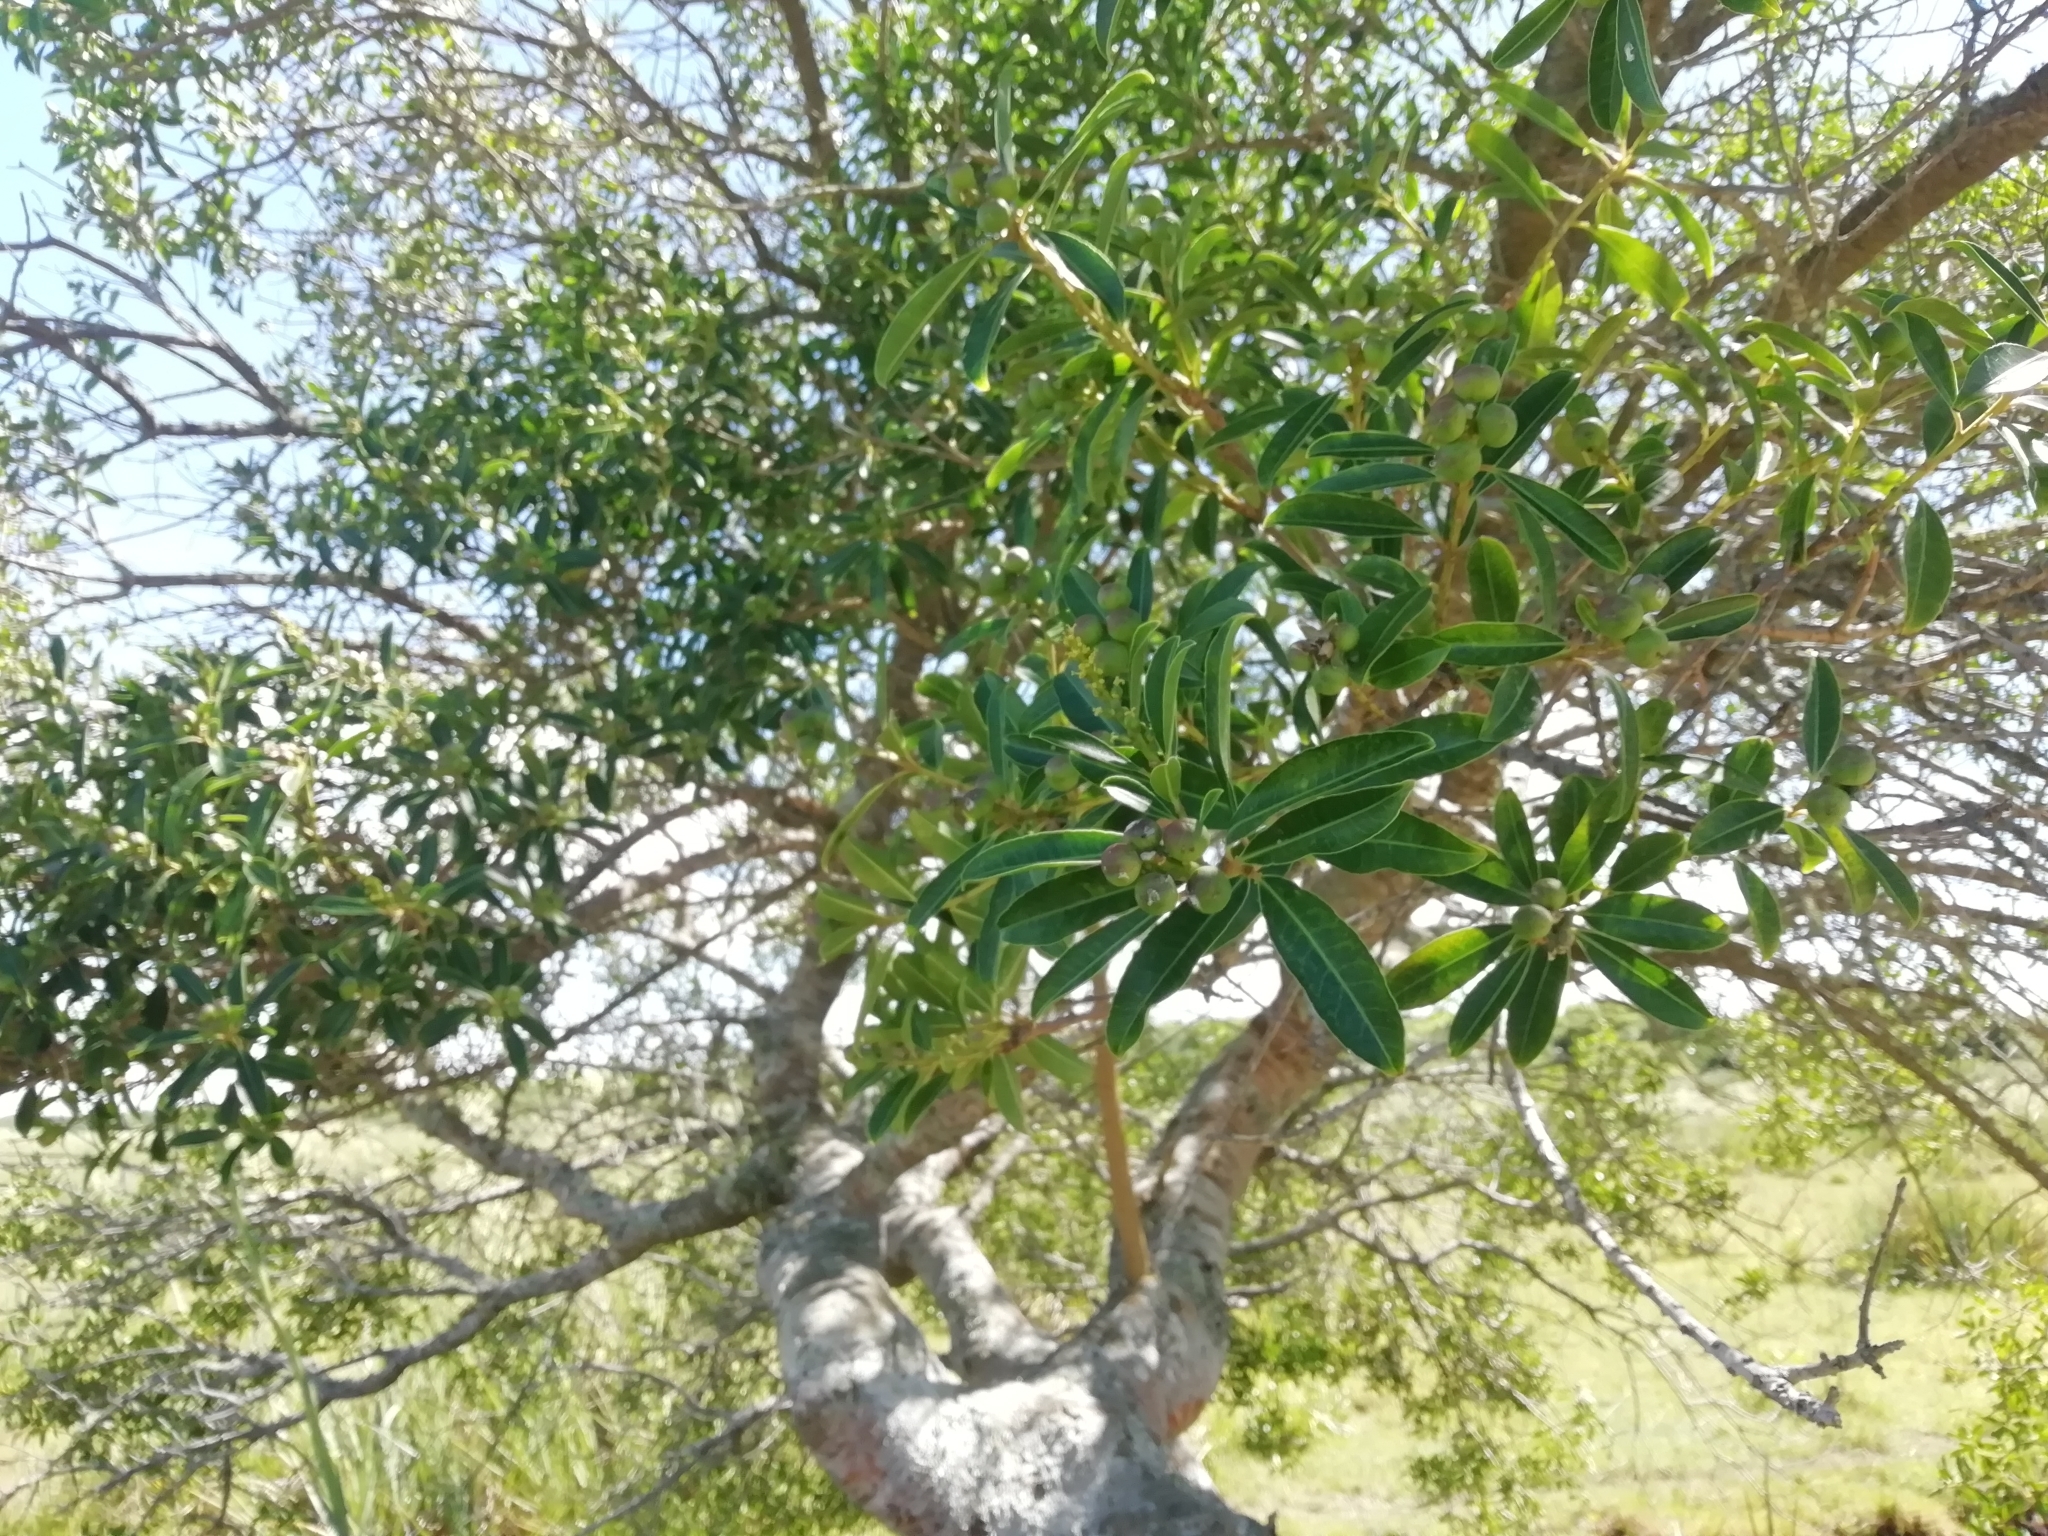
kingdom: Plantae
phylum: Tracheophyta
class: Magnoliopsida
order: Malpighiales
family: Euphorbiaceae
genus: Sapium
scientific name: Sapium glandulosum
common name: Milktree
